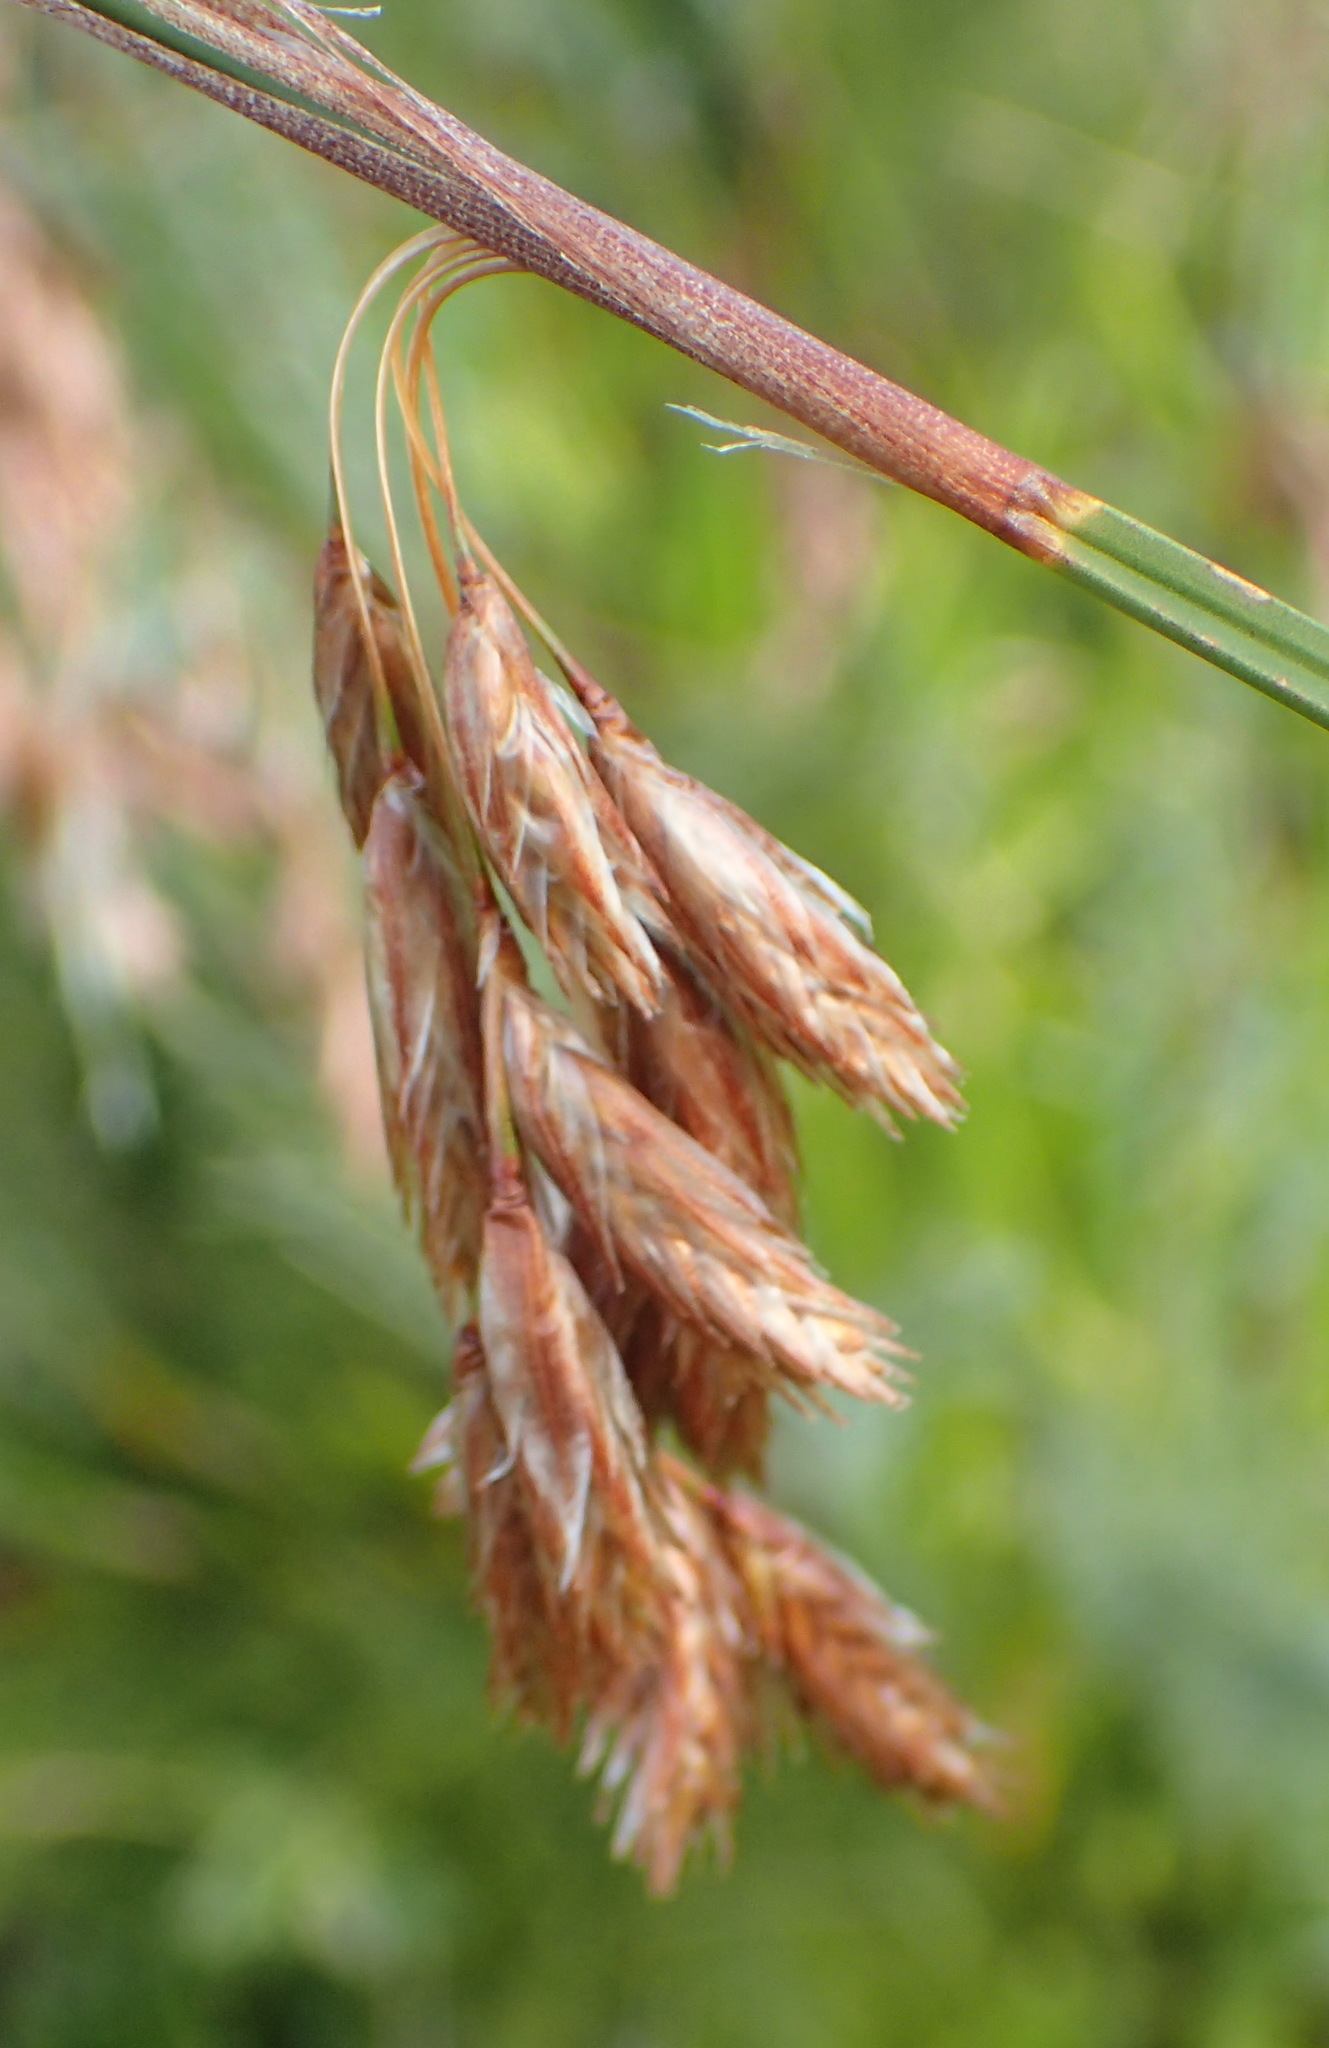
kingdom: Plantae
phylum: Tracheophyta
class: Liliopsida
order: Poales
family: Restionaceae
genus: Thamnochortus
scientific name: Thamnochortus glaber
